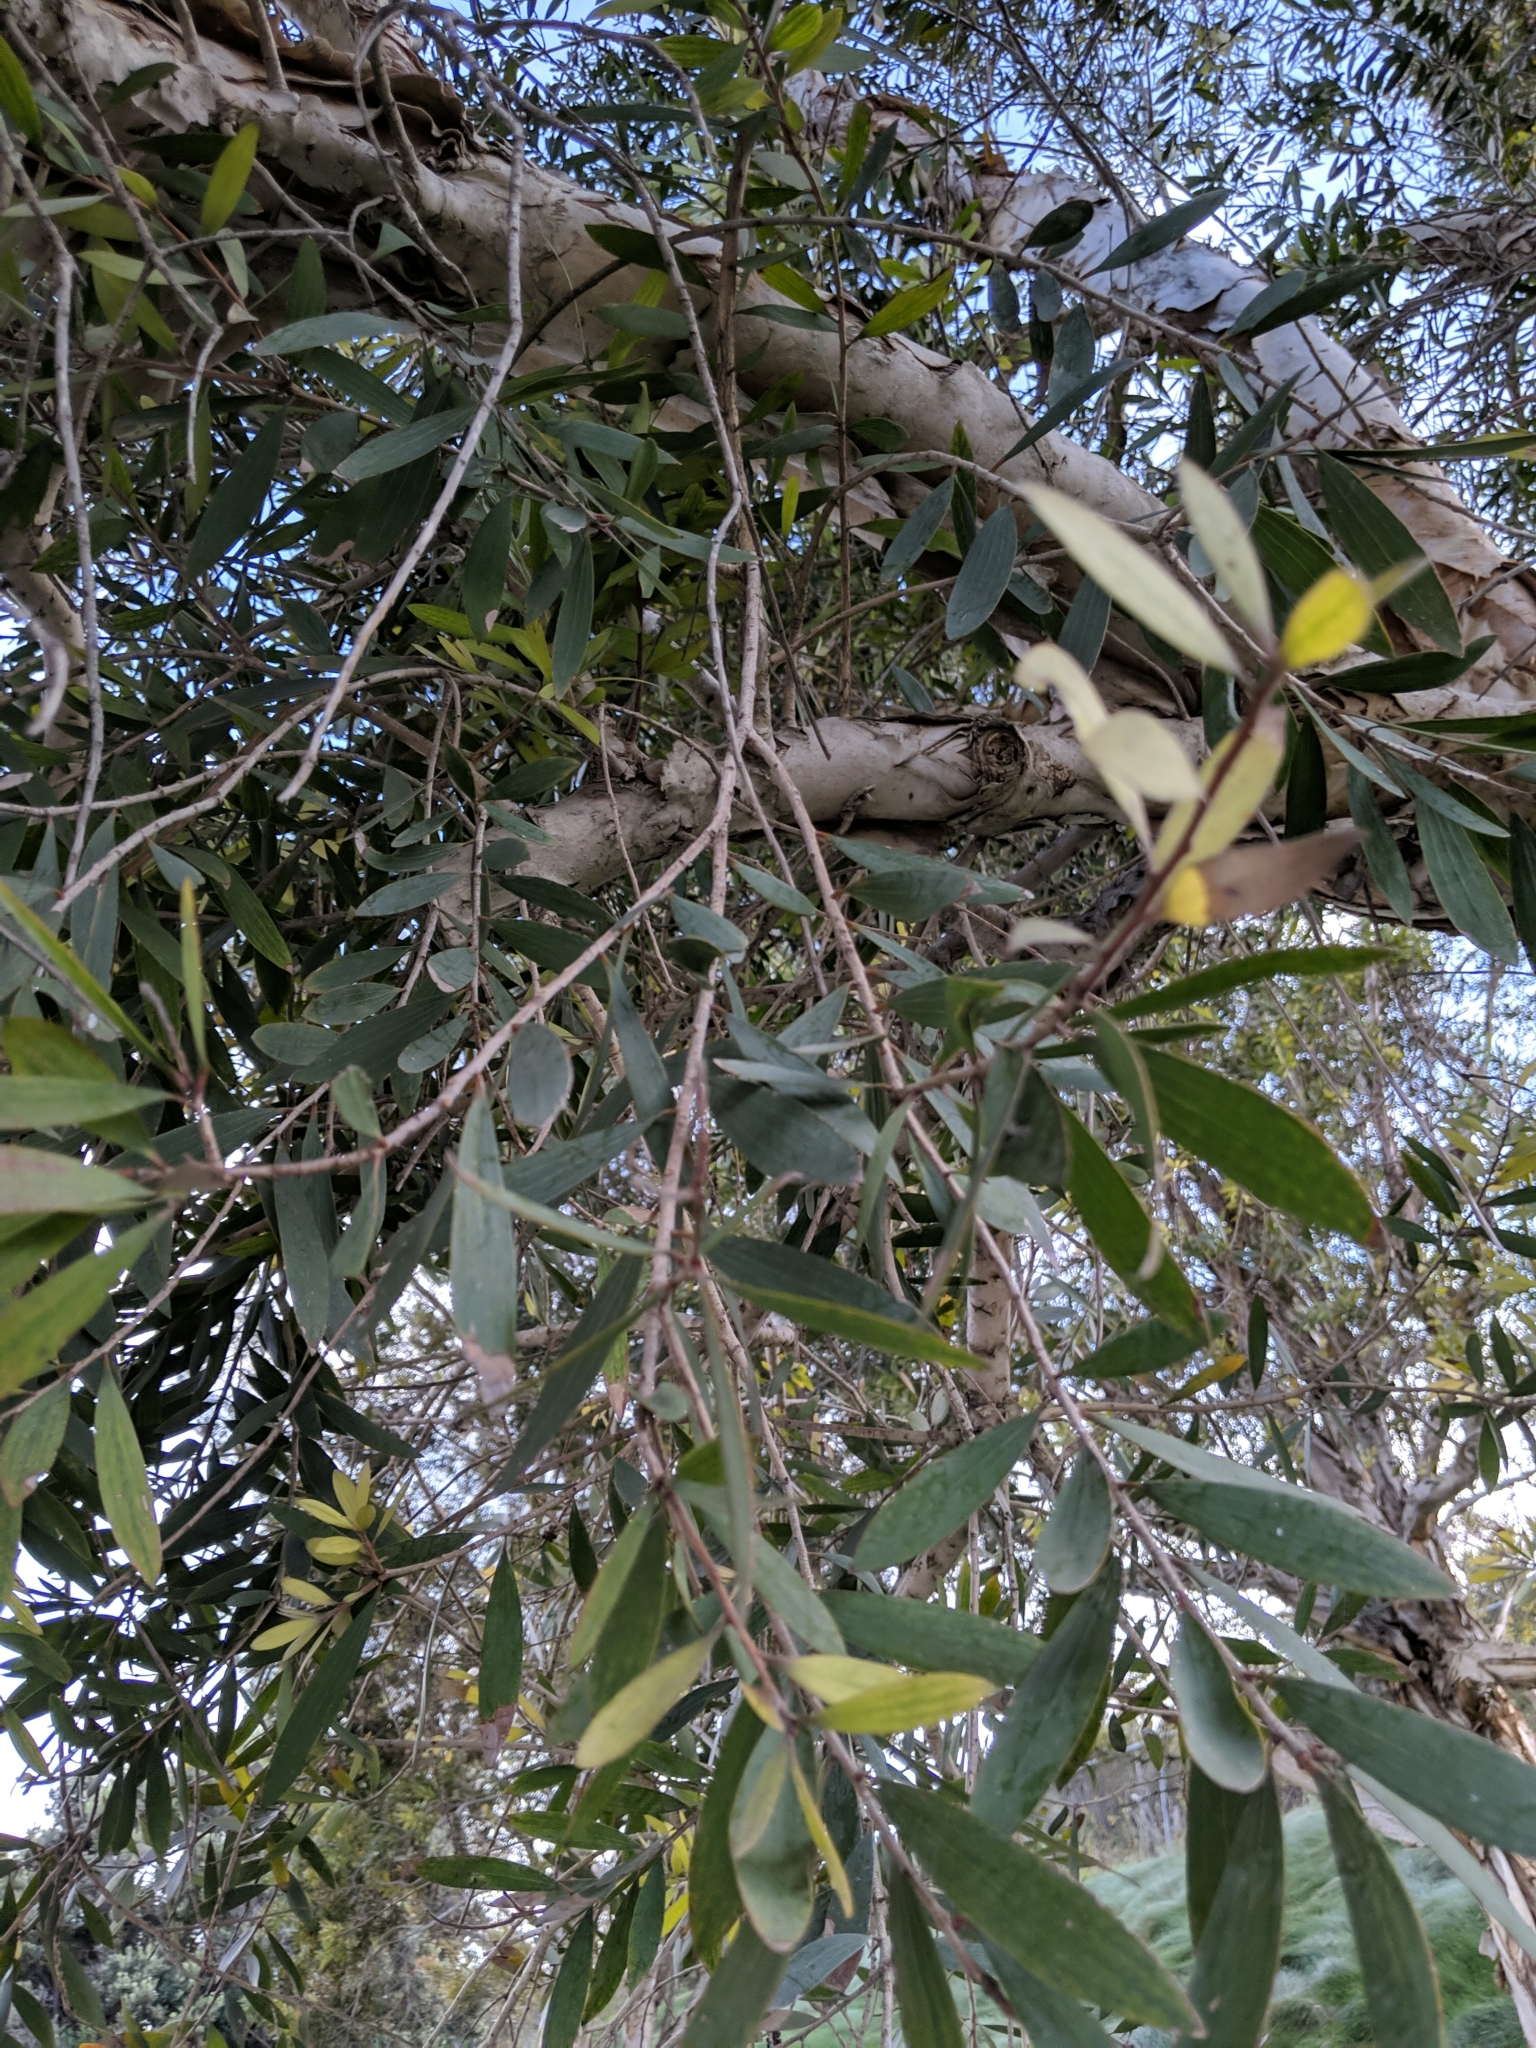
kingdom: Plantae
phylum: Tracheophyta
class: Magnoliopsida
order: Myrtales
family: Myrtaceae
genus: Melaleuca
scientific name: Melaleuca quinquenervia
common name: Punktree
